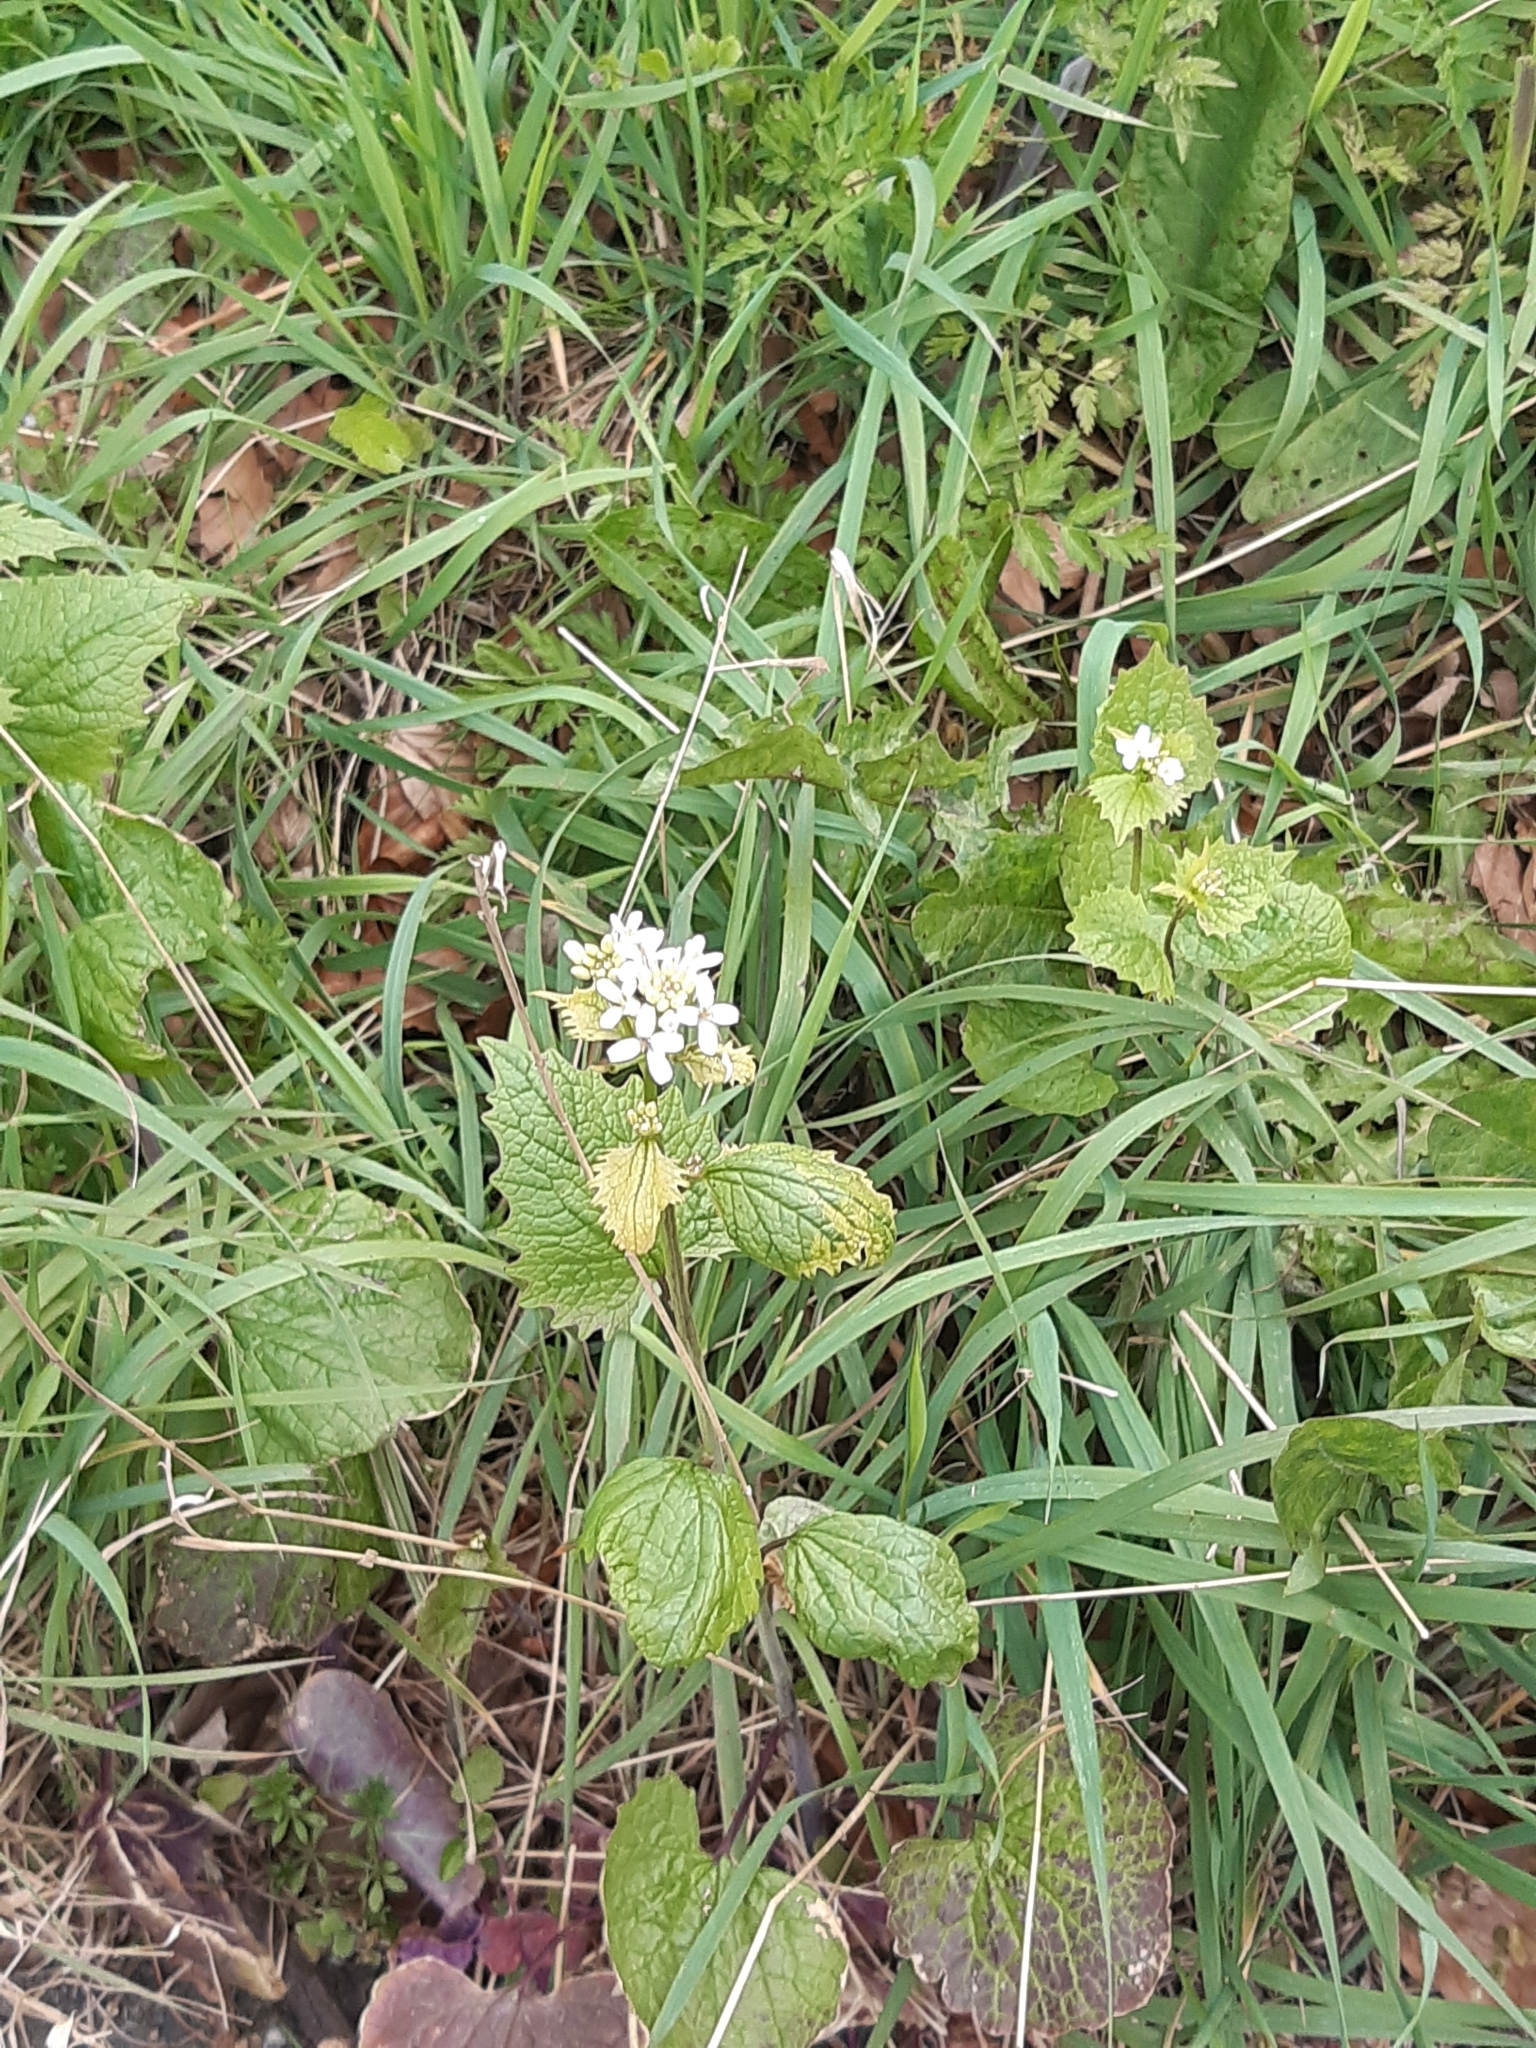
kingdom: Plantae
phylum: Tracheophyta
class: Magnoliopsida
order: Brassicales
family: Brassicaceae
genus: Alliaria
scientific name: Alliaria petiolata
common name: Garlic mustard
